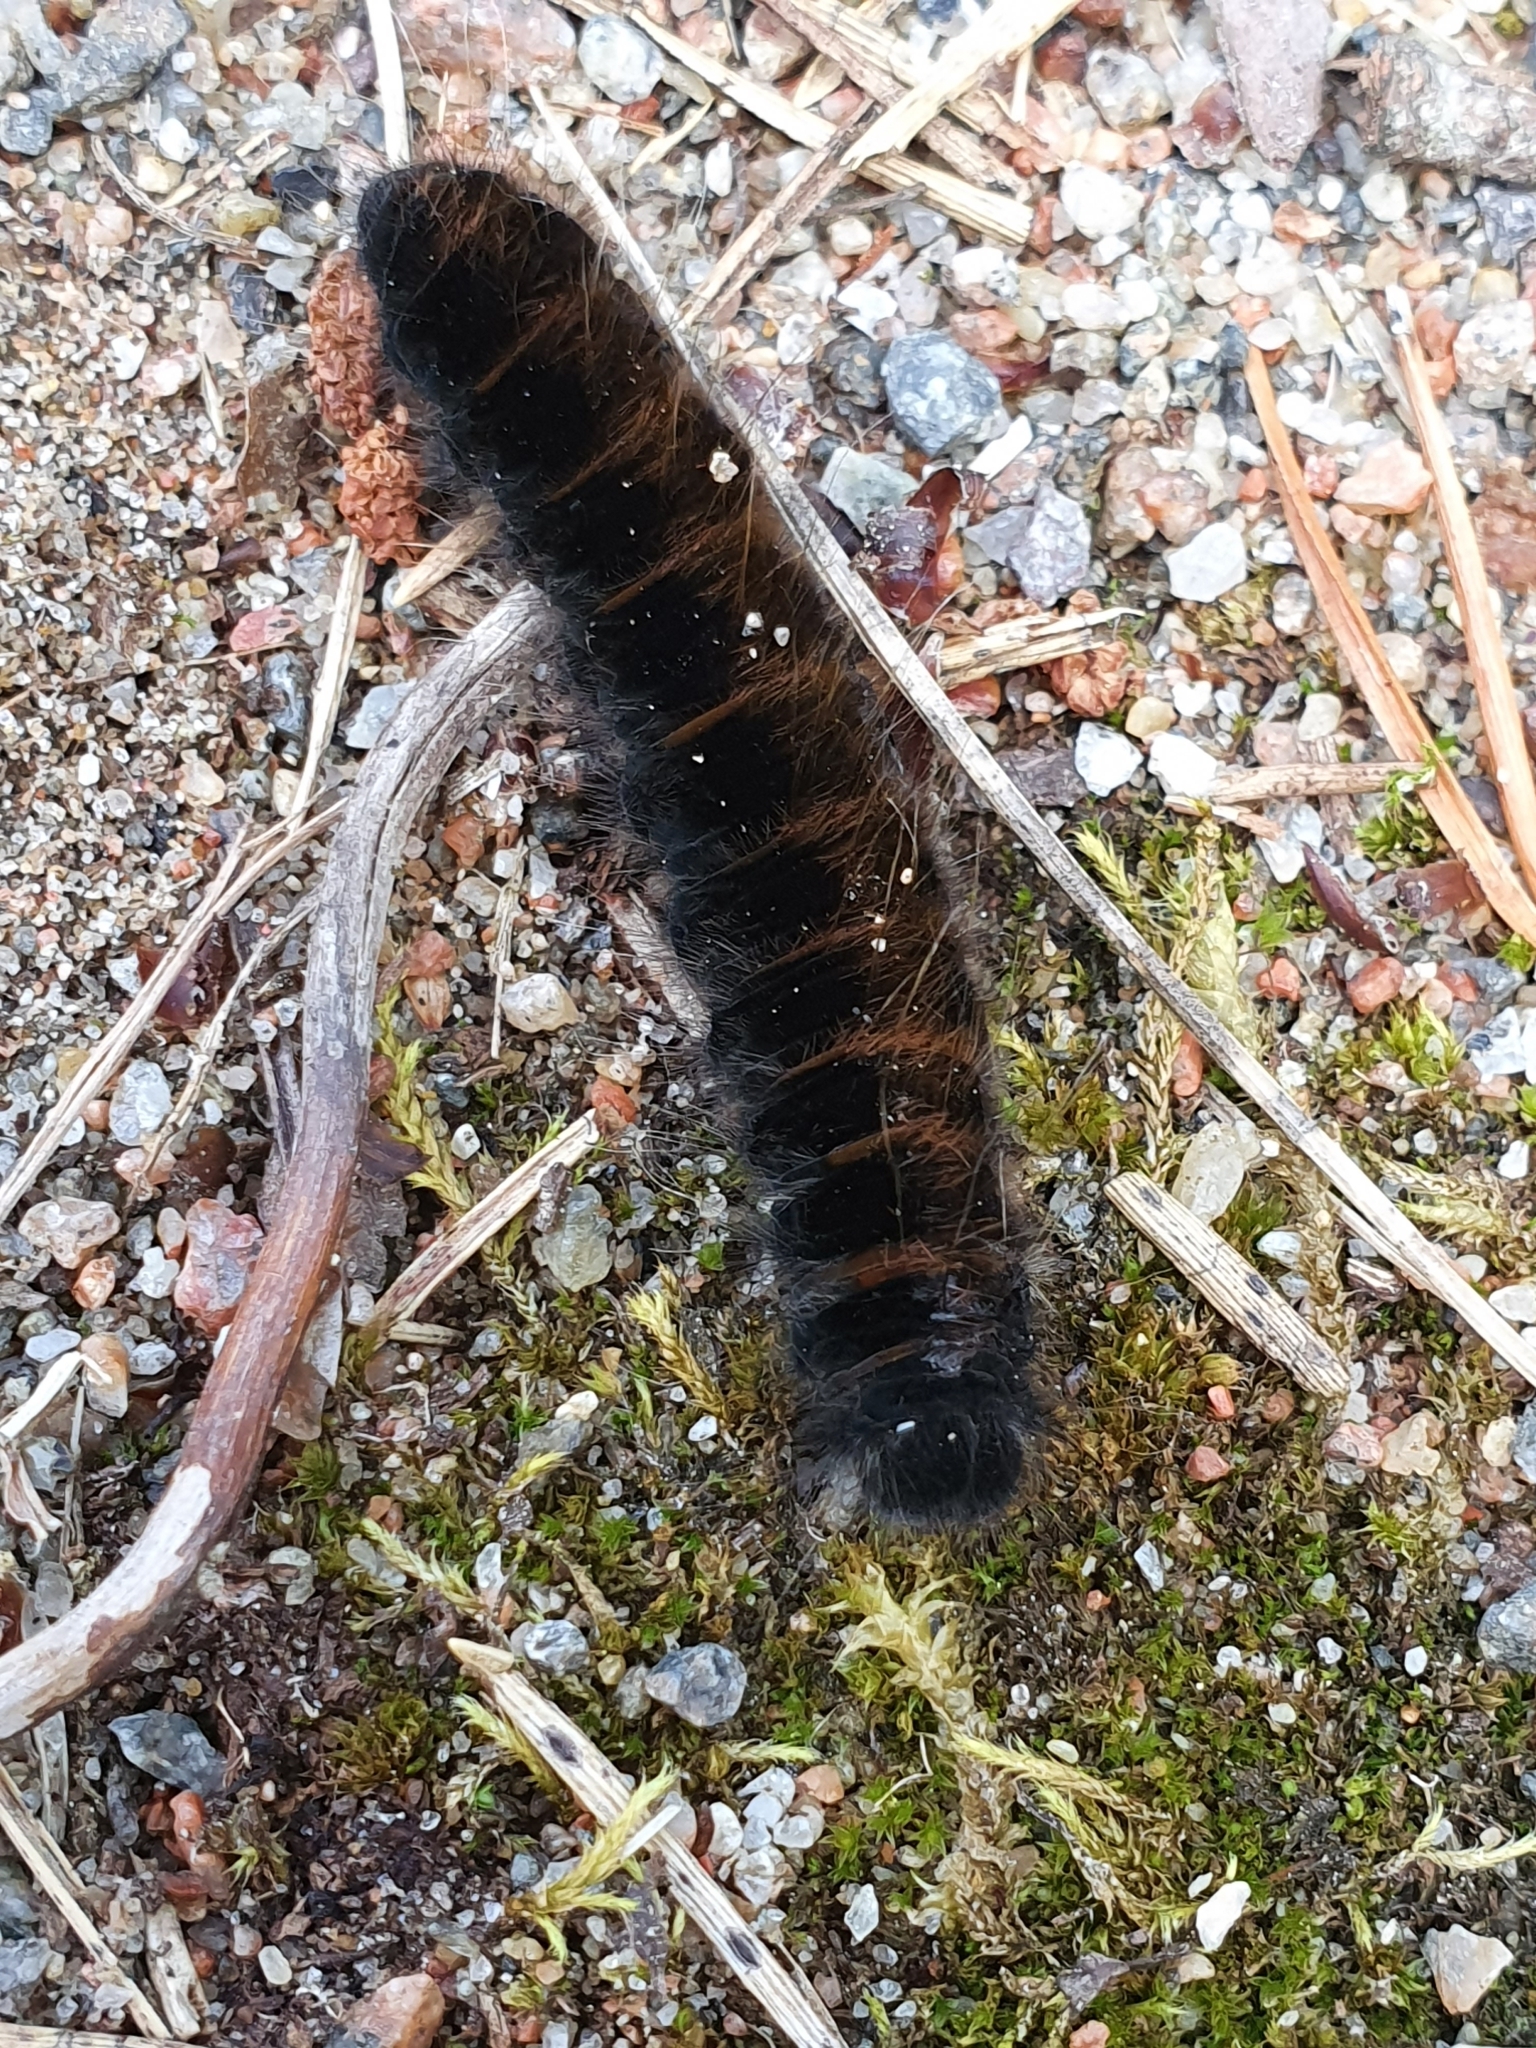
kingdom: Animalia
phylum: Arthropoda
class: Insecta
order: Lepidoptera
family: Lasiocampidae
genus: Macrothylacia
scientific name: Macrothylacia rubi
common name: Fox moth
